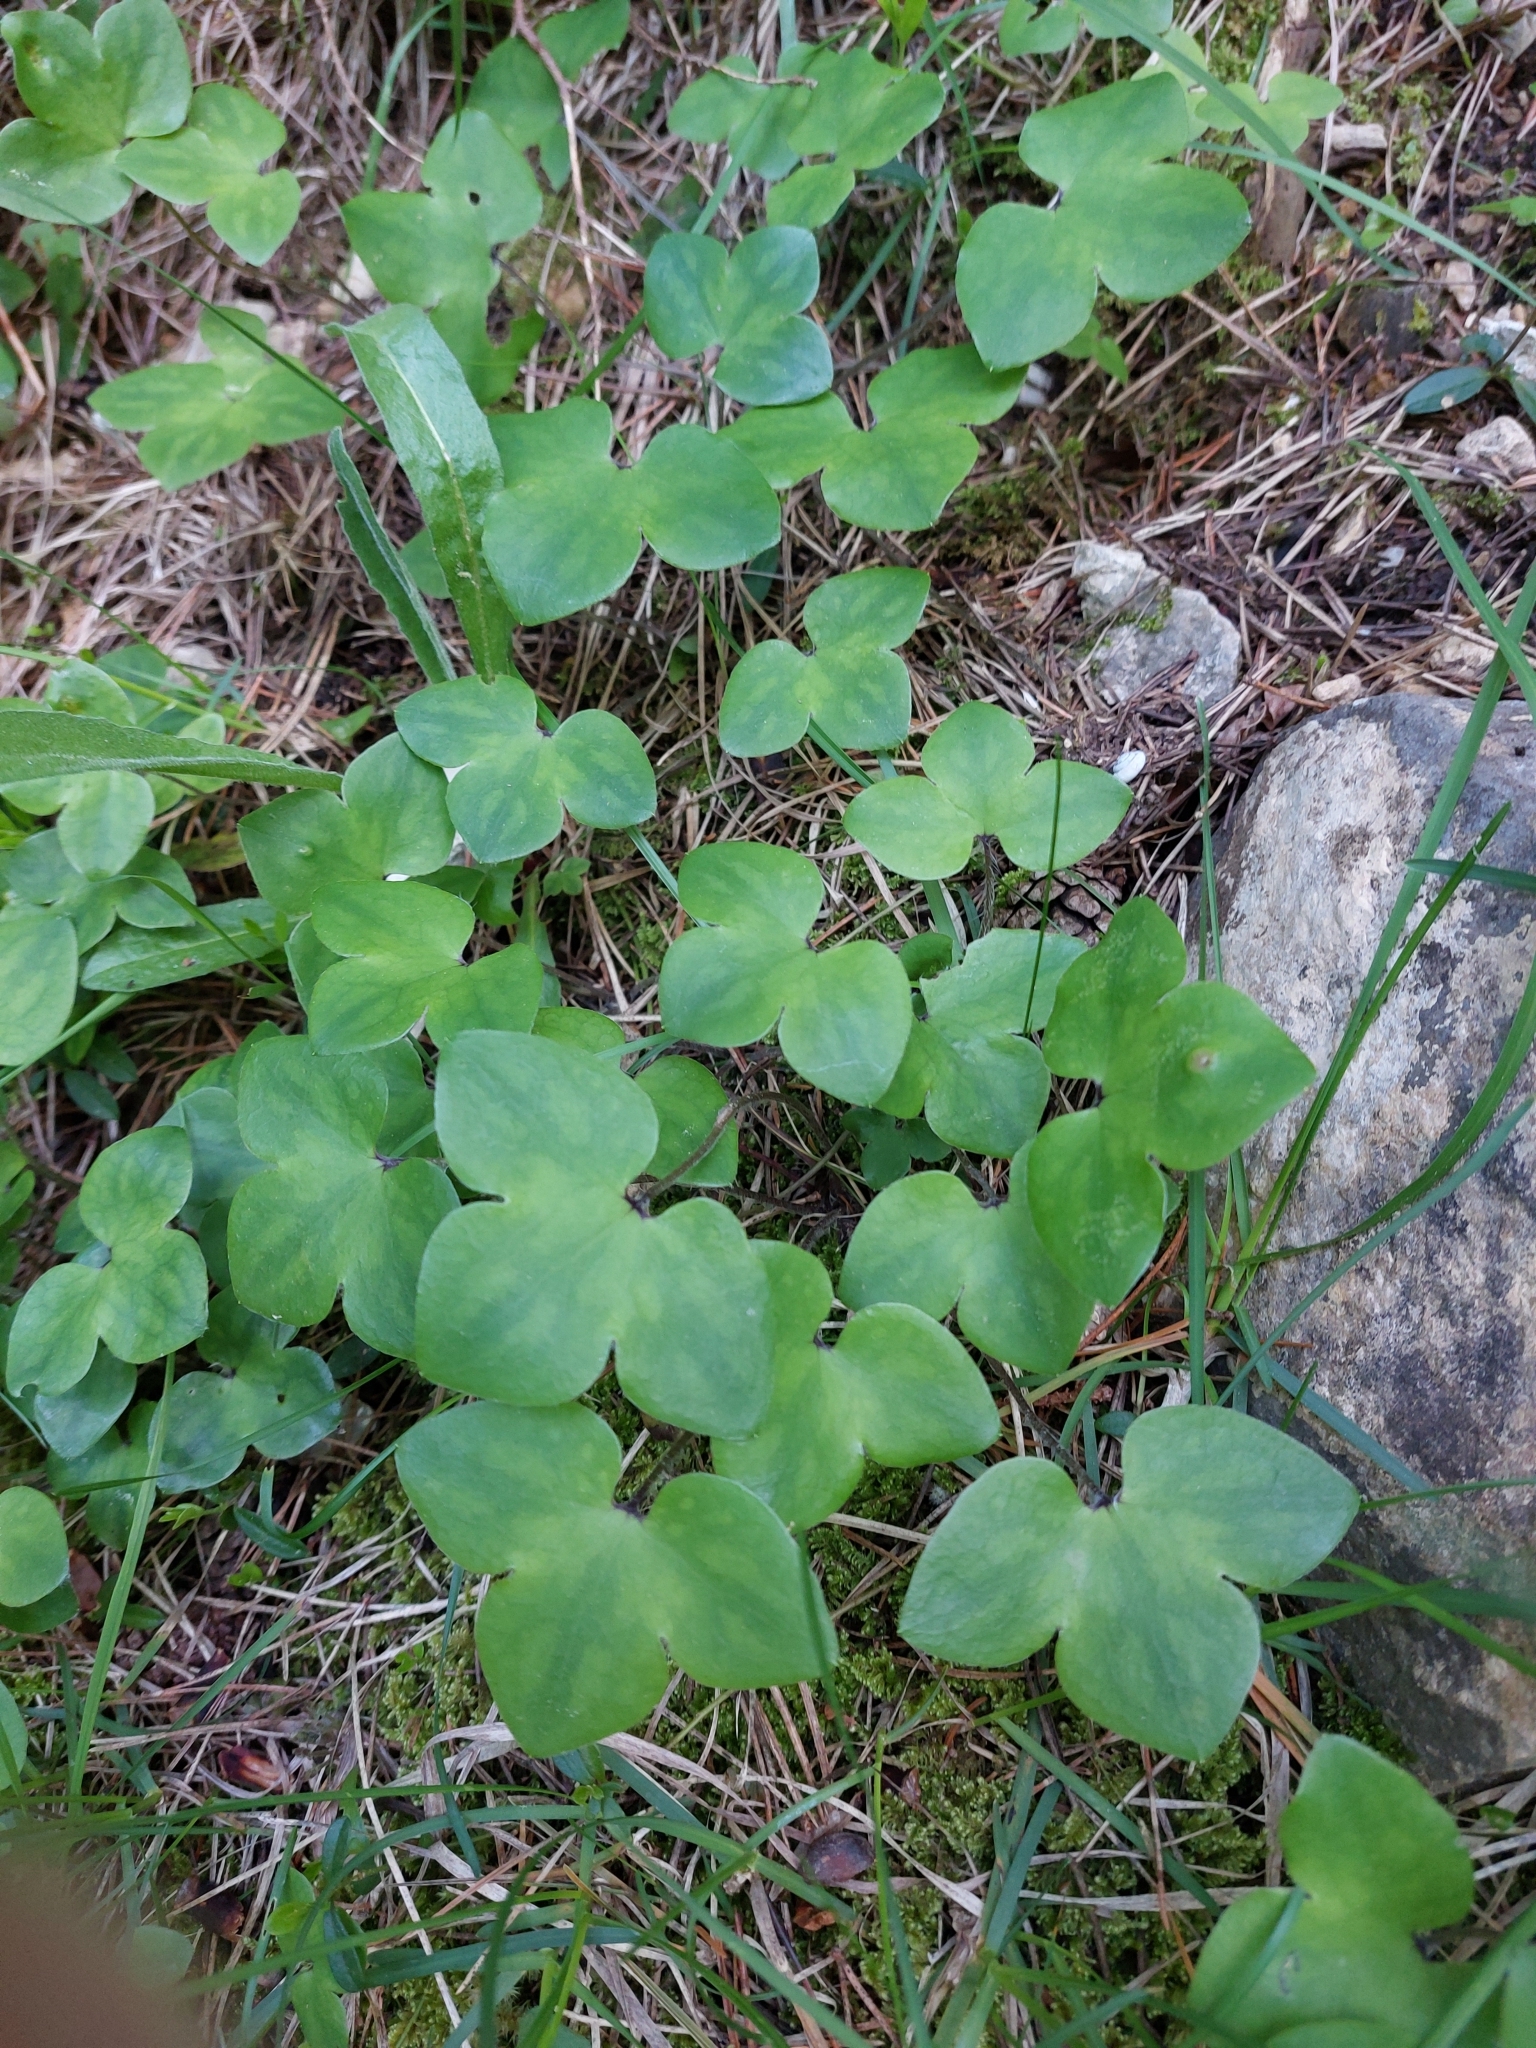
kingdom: Plantae
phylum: Tracheophyta
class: Magnoliopsida
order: Ranunculales
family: Ranunculaceae
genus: Hepatica
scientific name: Hepatica nobilis
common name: Liverleaf
